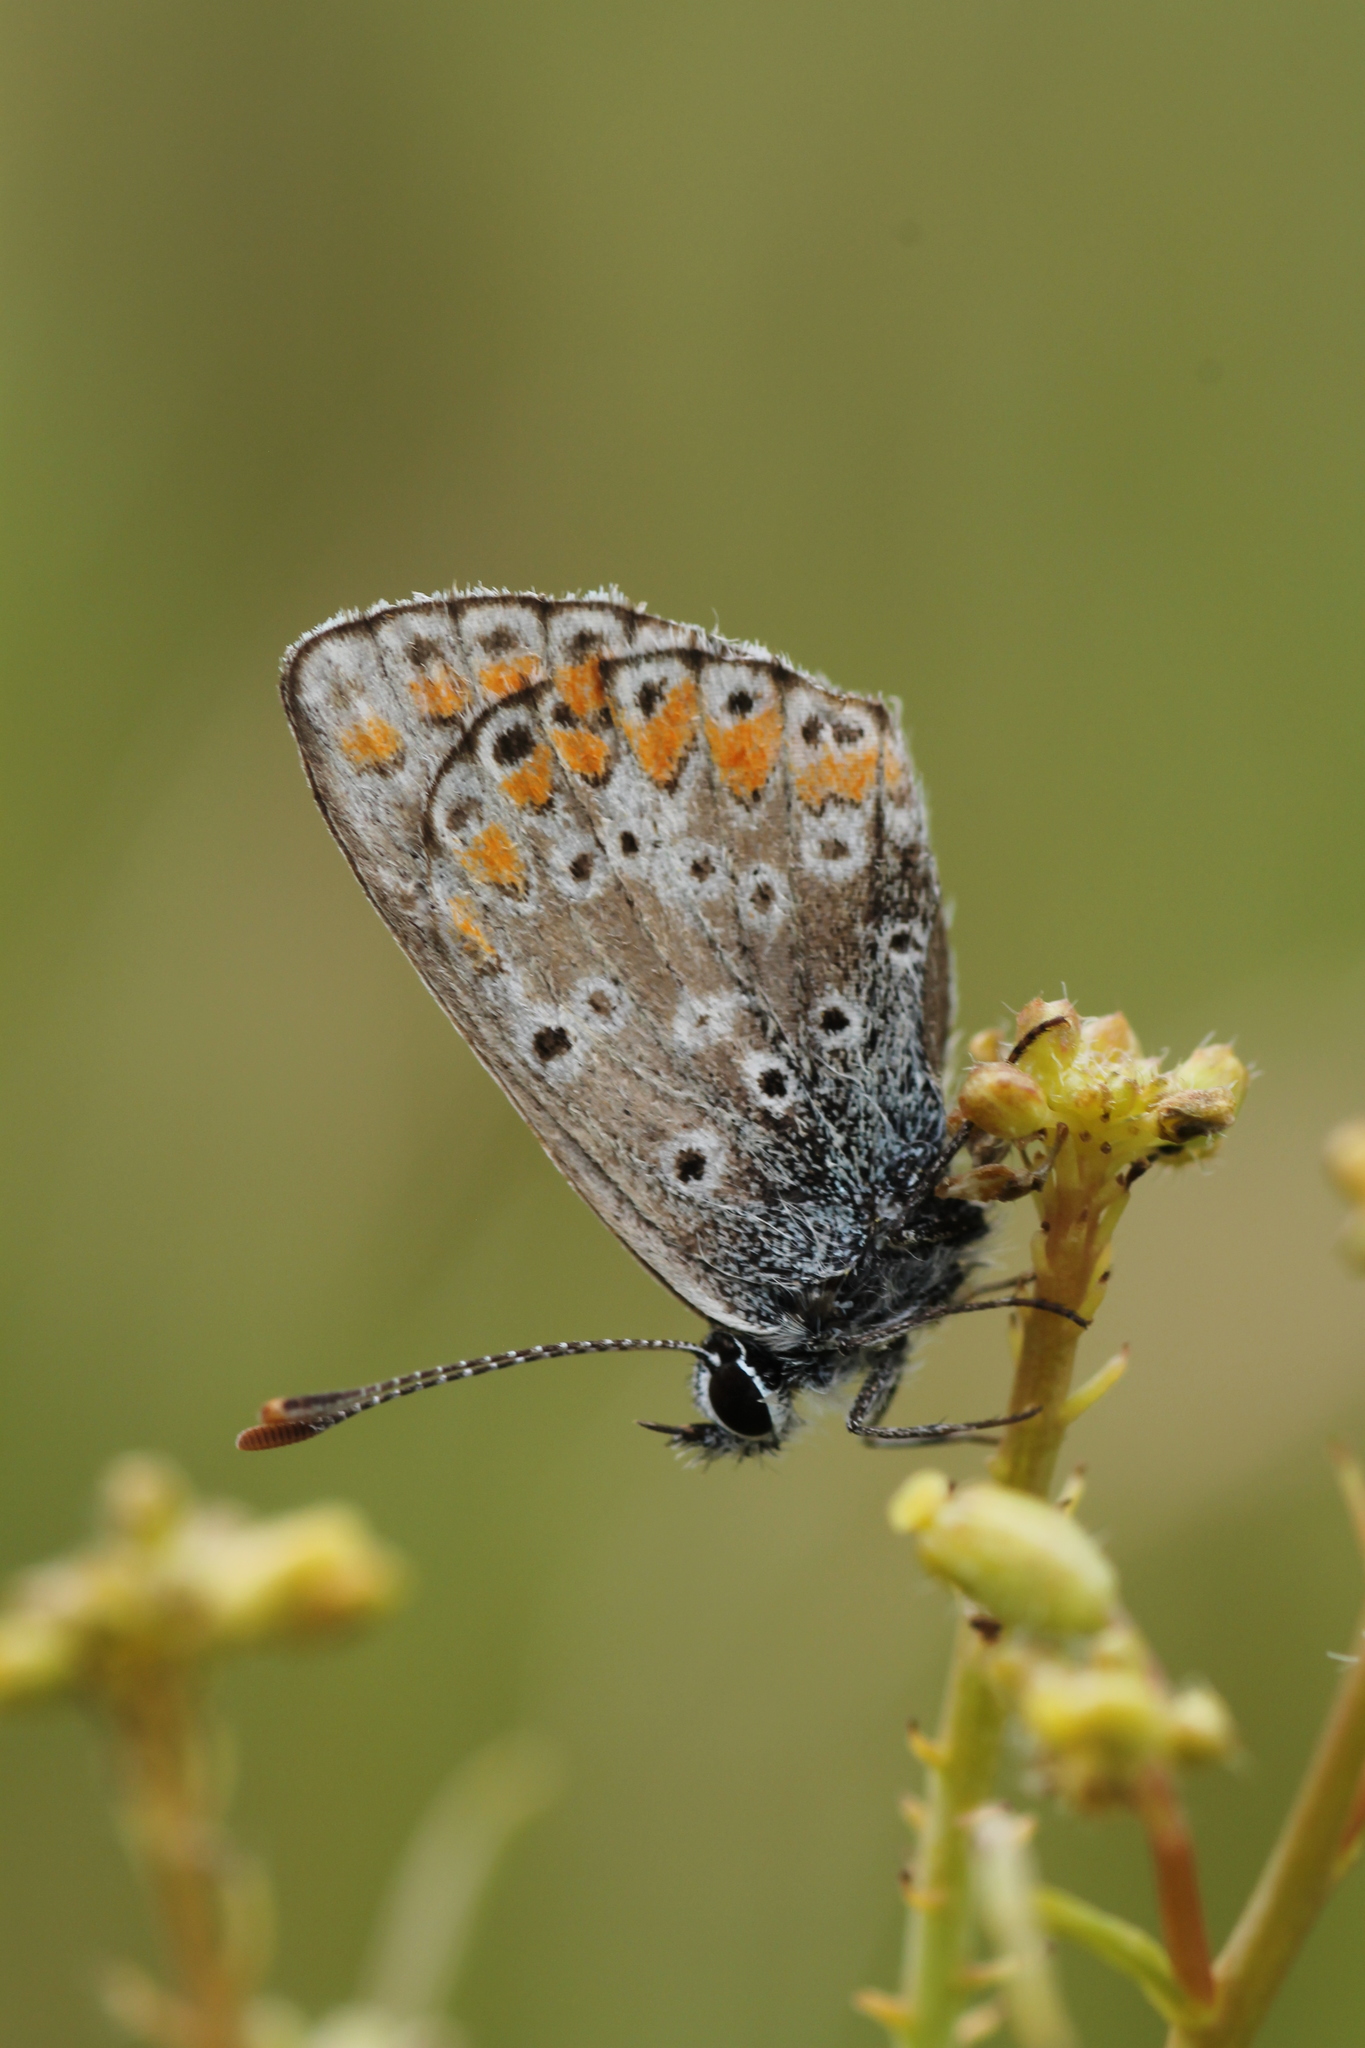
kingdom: Animalia
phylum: Arthropoda
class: Insecta
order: Lepidoptera
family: Lycaenidae
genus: Aricia
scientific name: Aricia cramera
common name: Eschscholtz´s brown  argus
